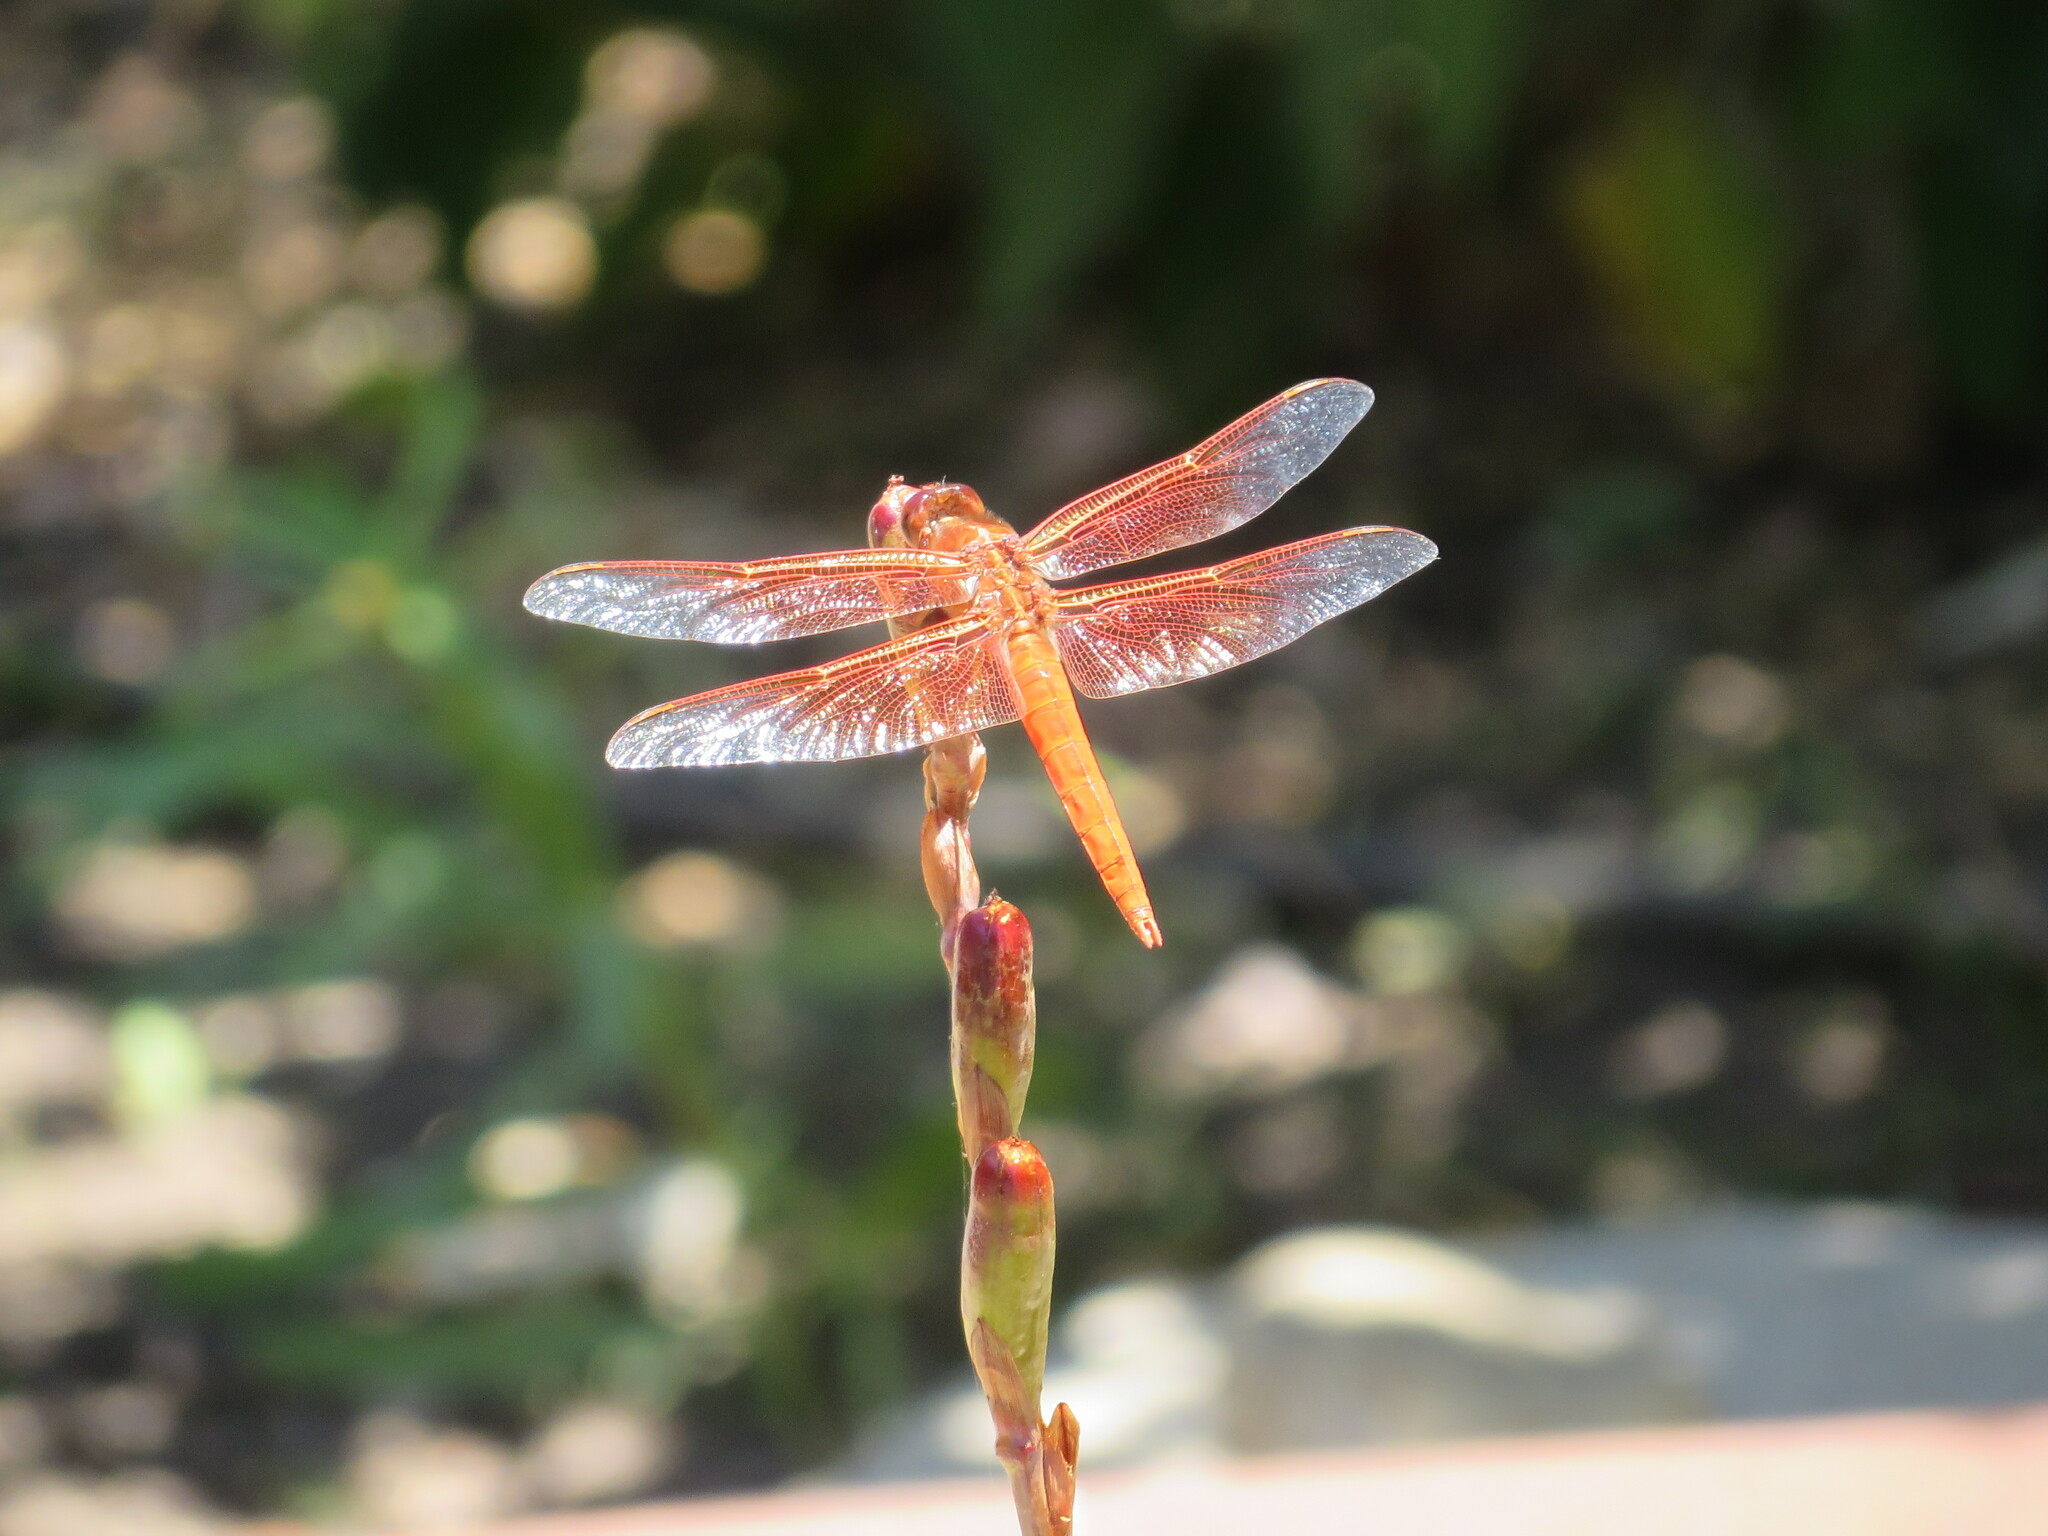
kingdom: Animalia
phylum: Arthropoda
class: Insecta
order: Odonata
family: Libellulidae
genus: Libellula
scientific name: Libellula saturata
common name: Flame skimmer
